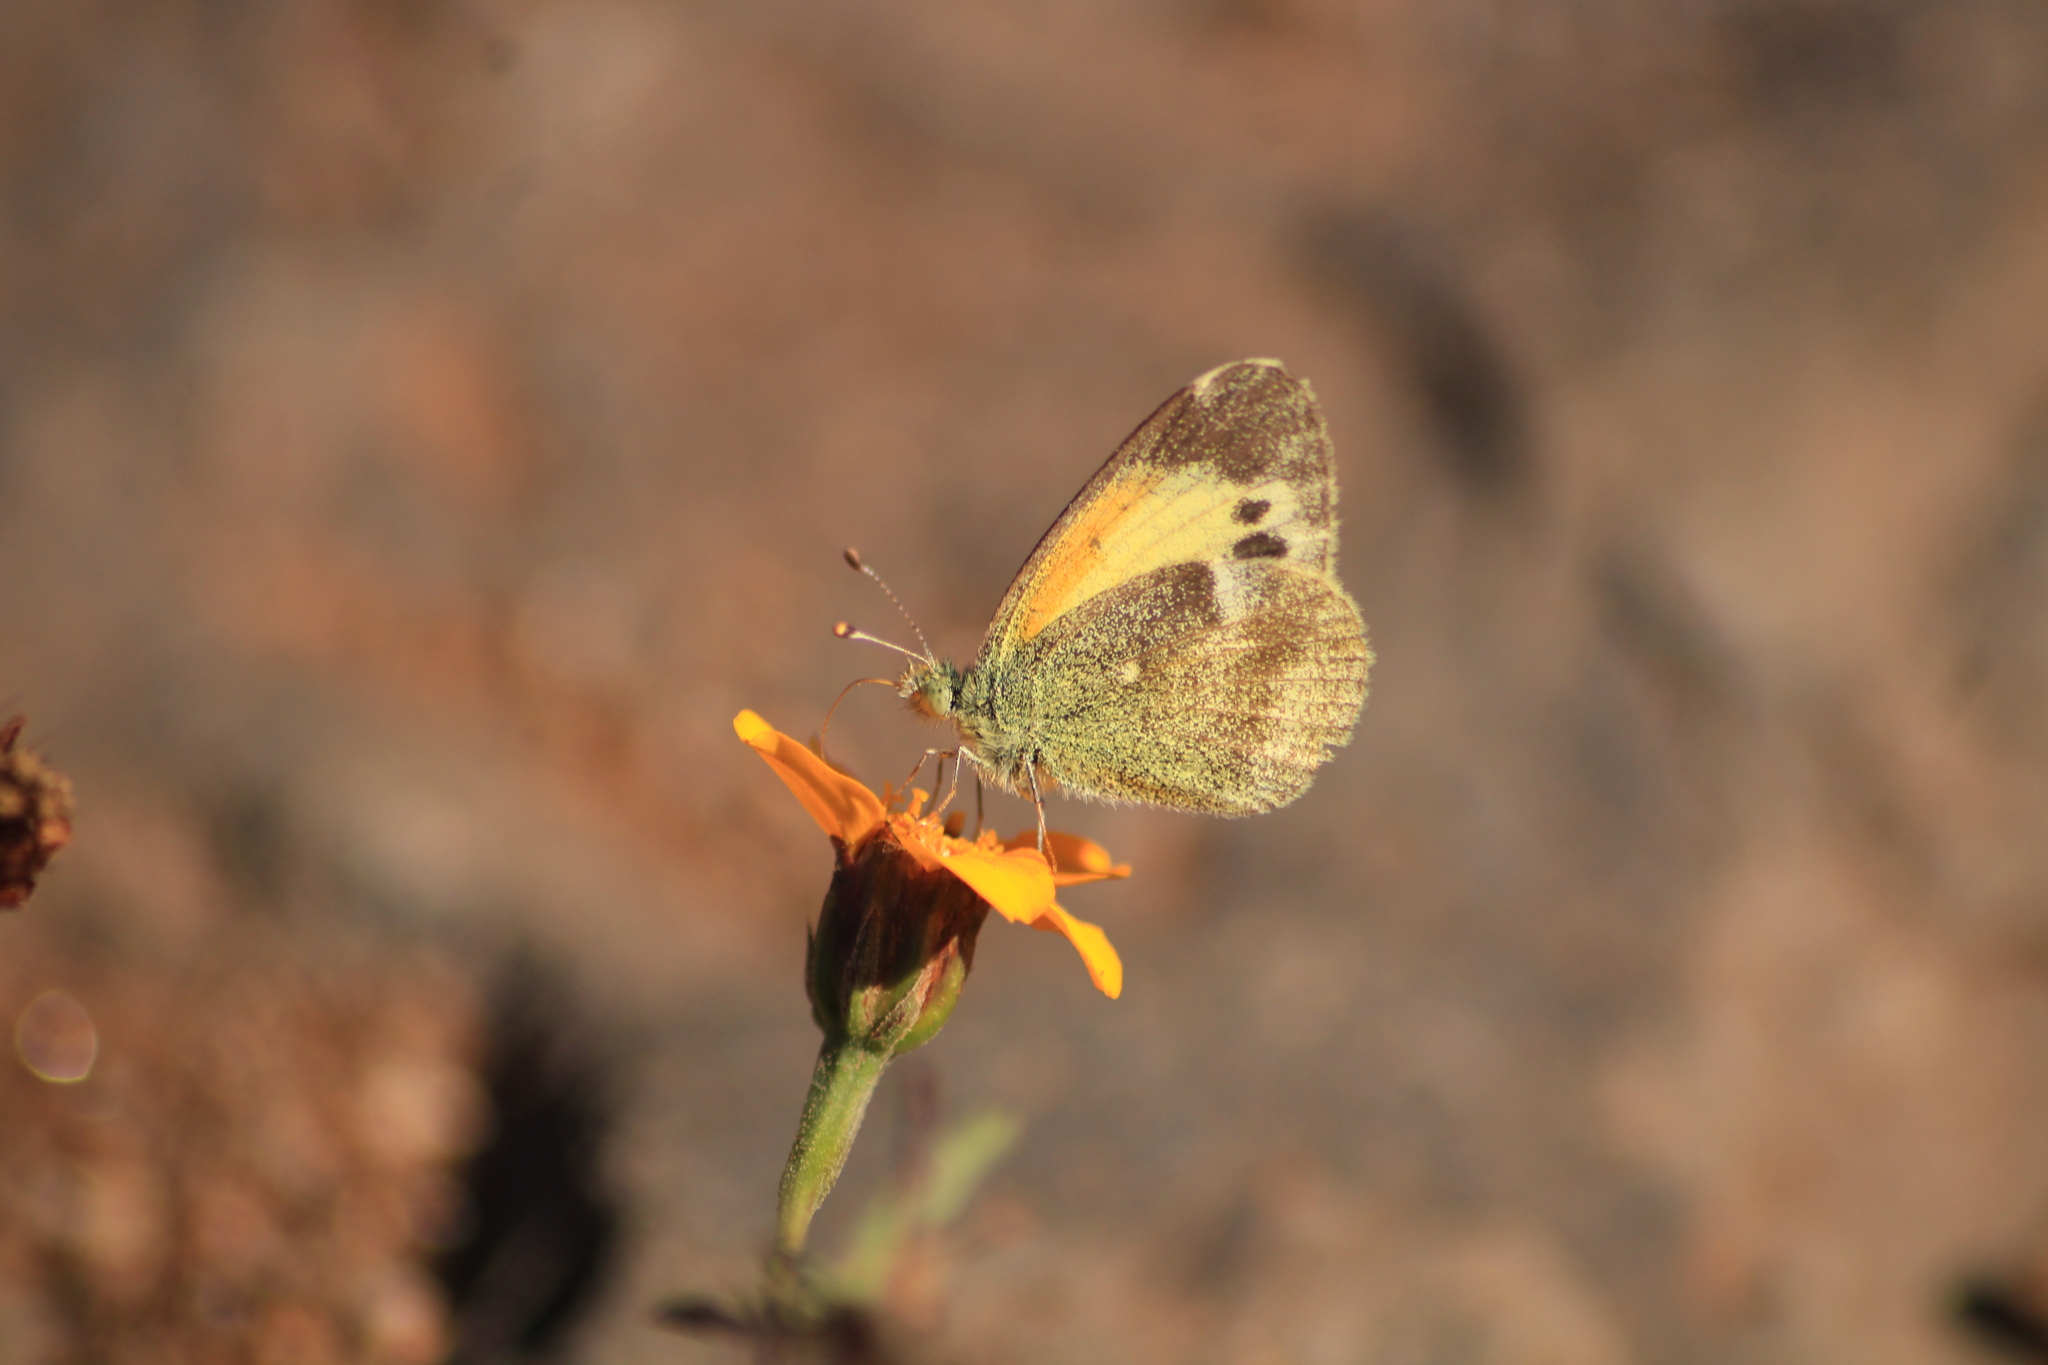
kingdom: Animalia
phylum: Arthropoda
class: Insecta
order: Lepidoptera
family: Pieridae
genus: Nathalis
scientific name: Nathalis iole
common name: Dainty sulphur
